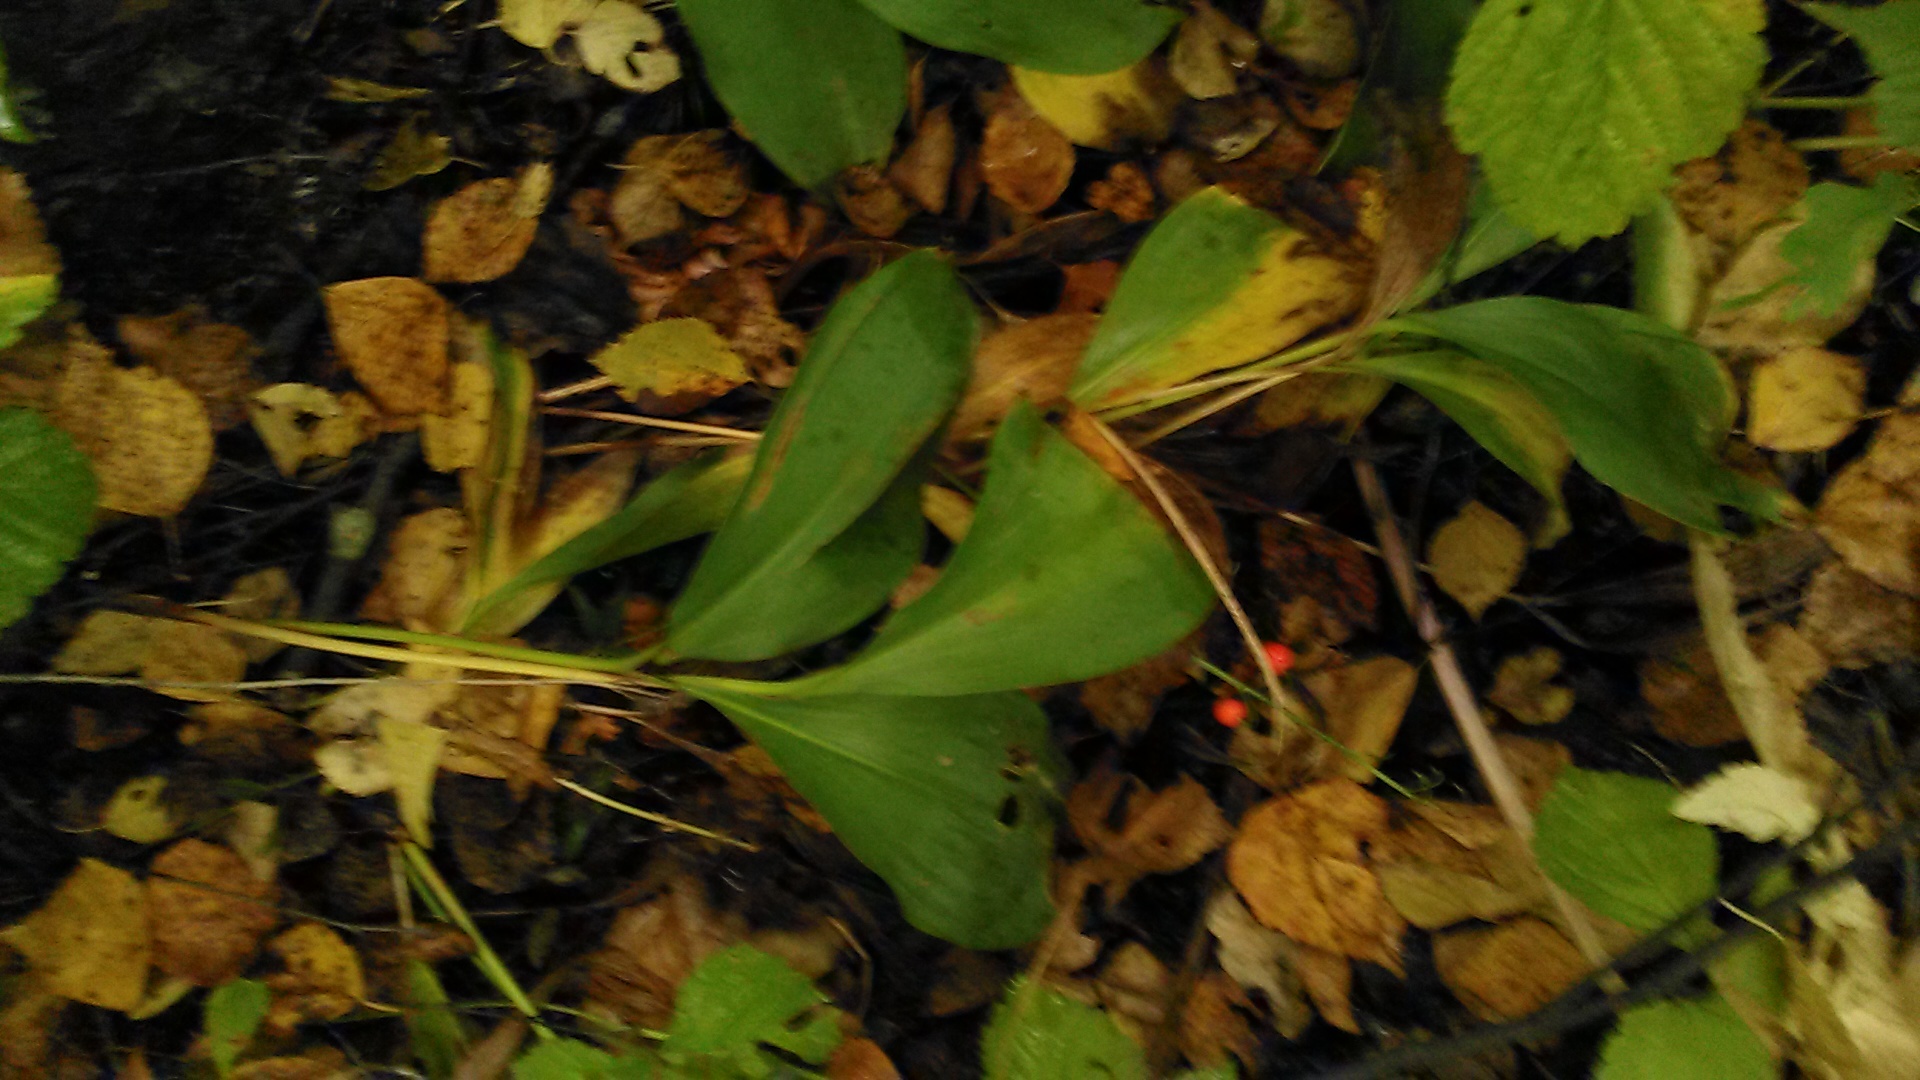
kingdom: Plantae
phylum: Tracheophyta
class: Liliopsida
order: Asparagales
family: Asparagaceae
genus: Convallaria
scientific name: Convallaria majalis
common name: Lily-of-the-valley
